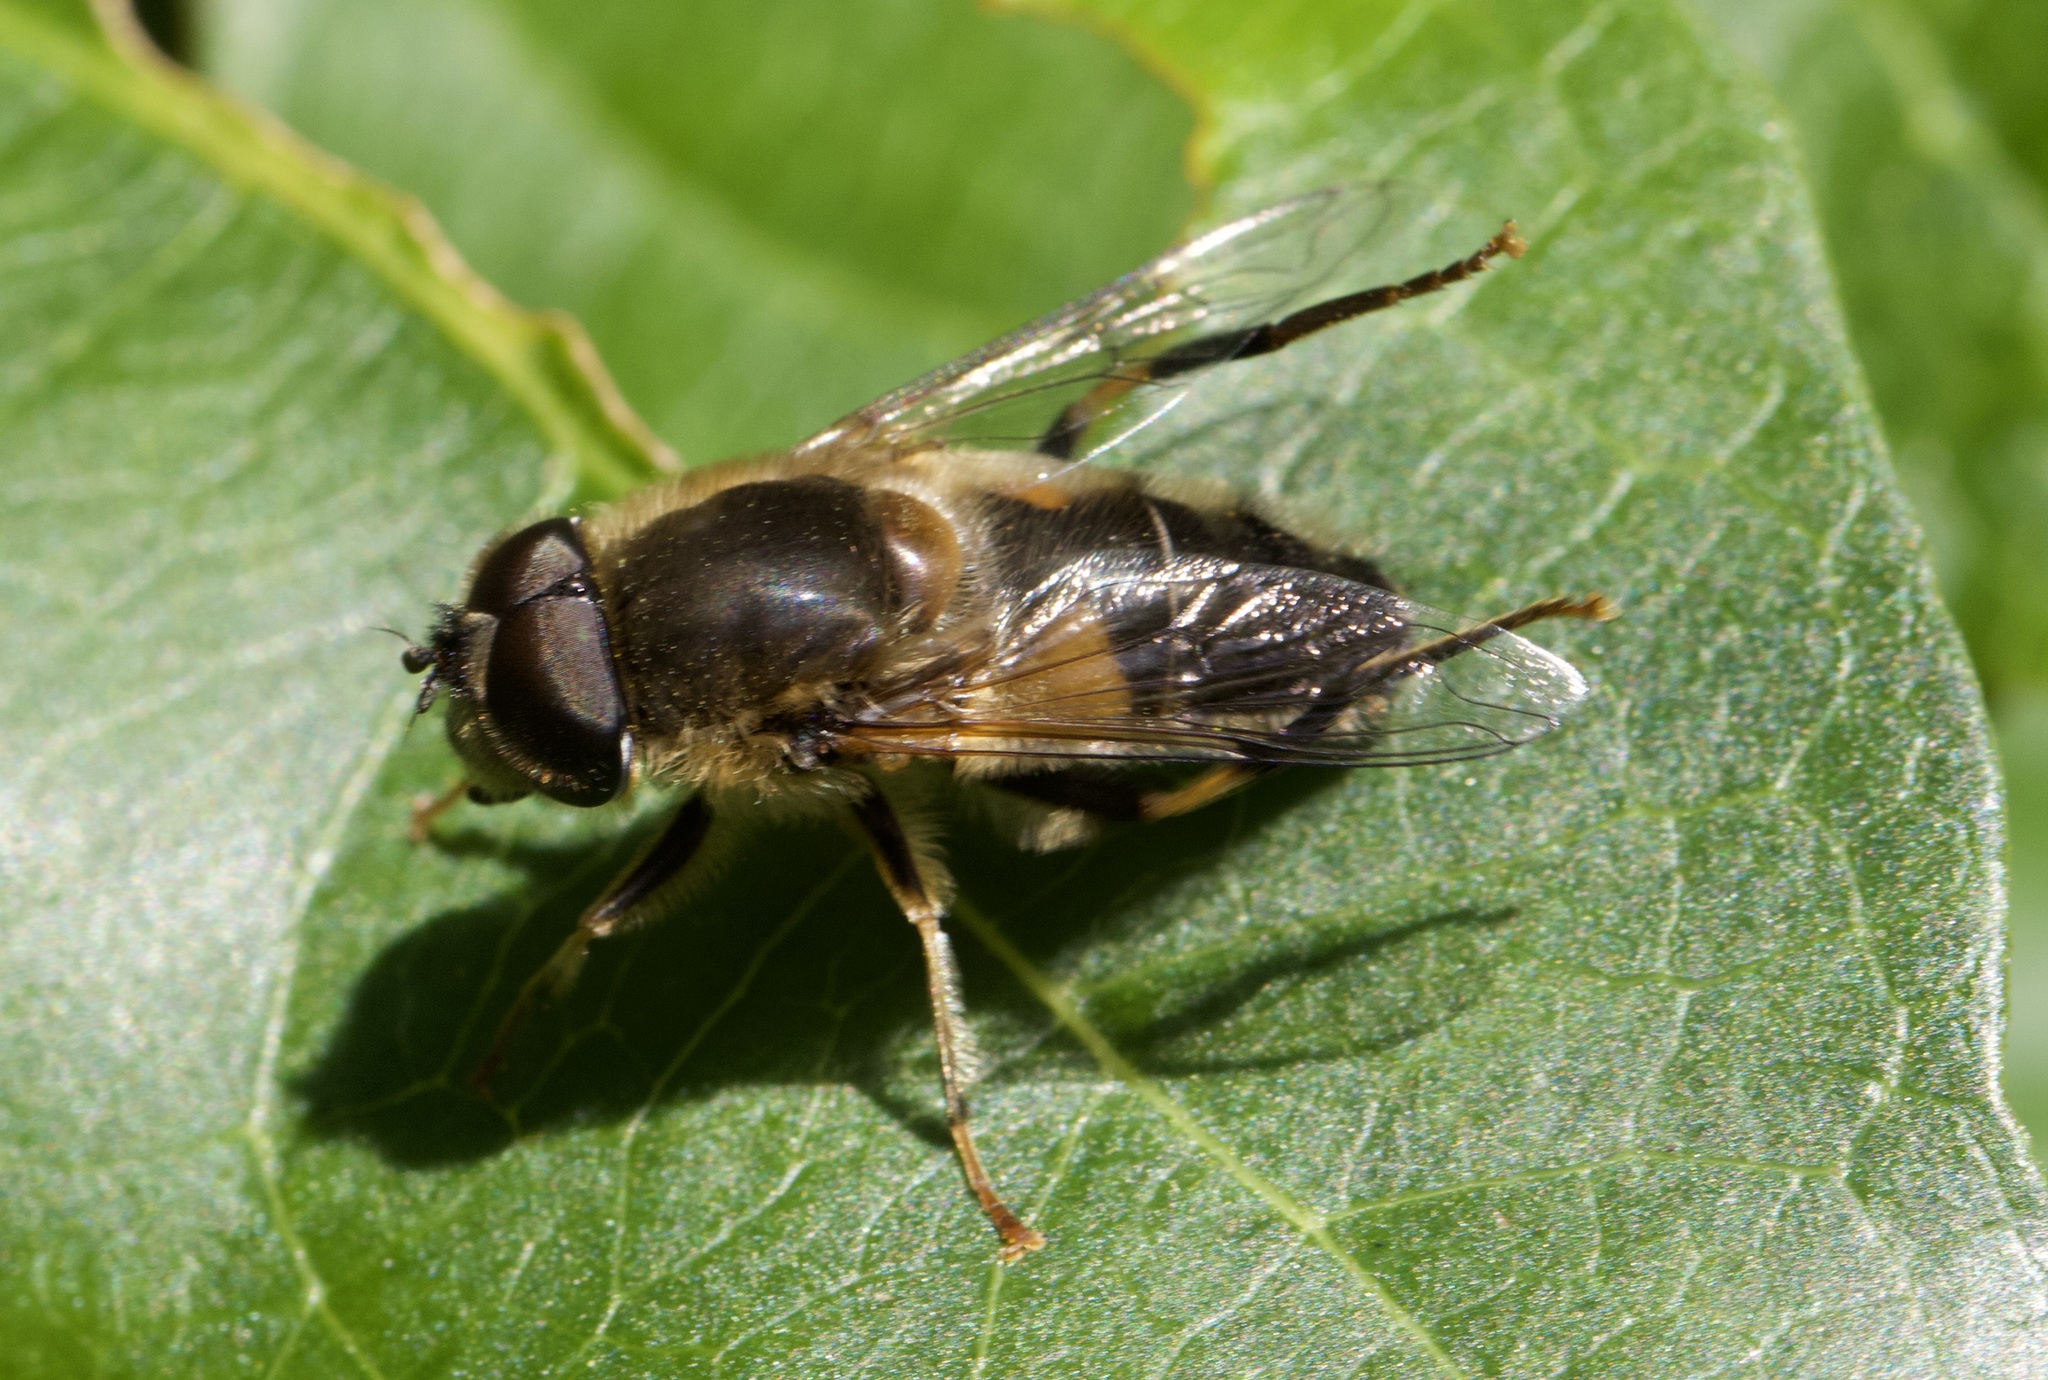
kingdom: Animalia
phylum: Arthropoda
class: Insecta
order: Diptera
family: Syrphidae
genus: Eristalis
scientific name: Eristalis pertinax
